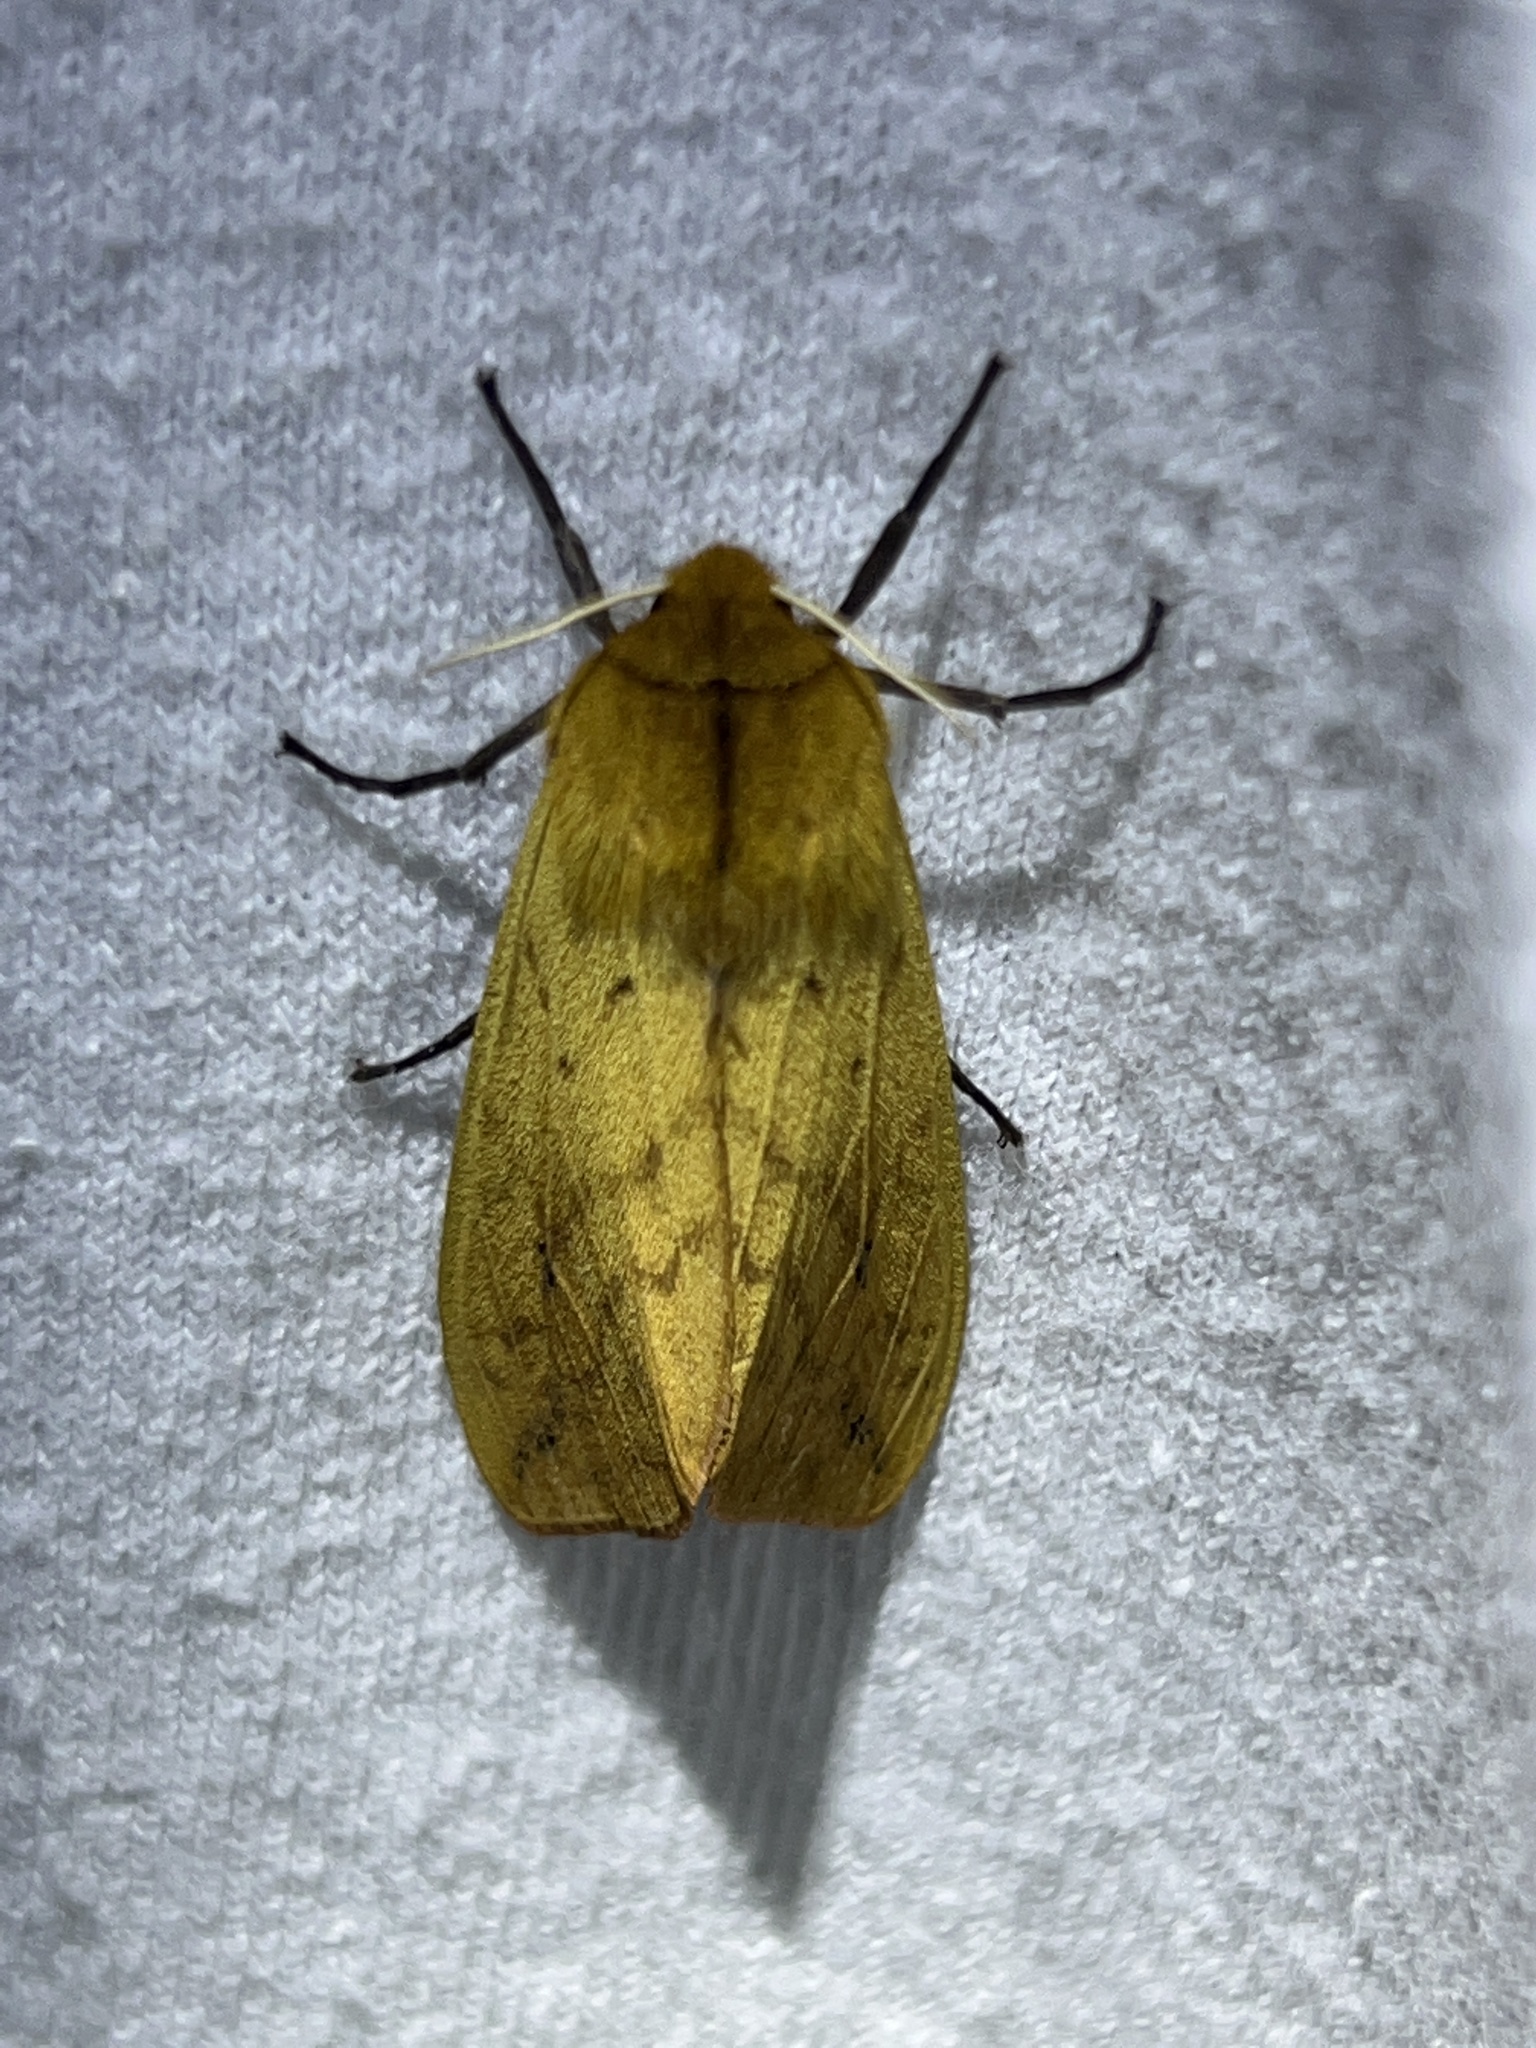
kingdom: Animalia
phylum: Arthropoda
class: Insecta
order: Lepidoptera
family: Erebidae
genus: Pyrrharctia
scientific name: Pyrrharctia isabella
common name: Isabella tiger moth
